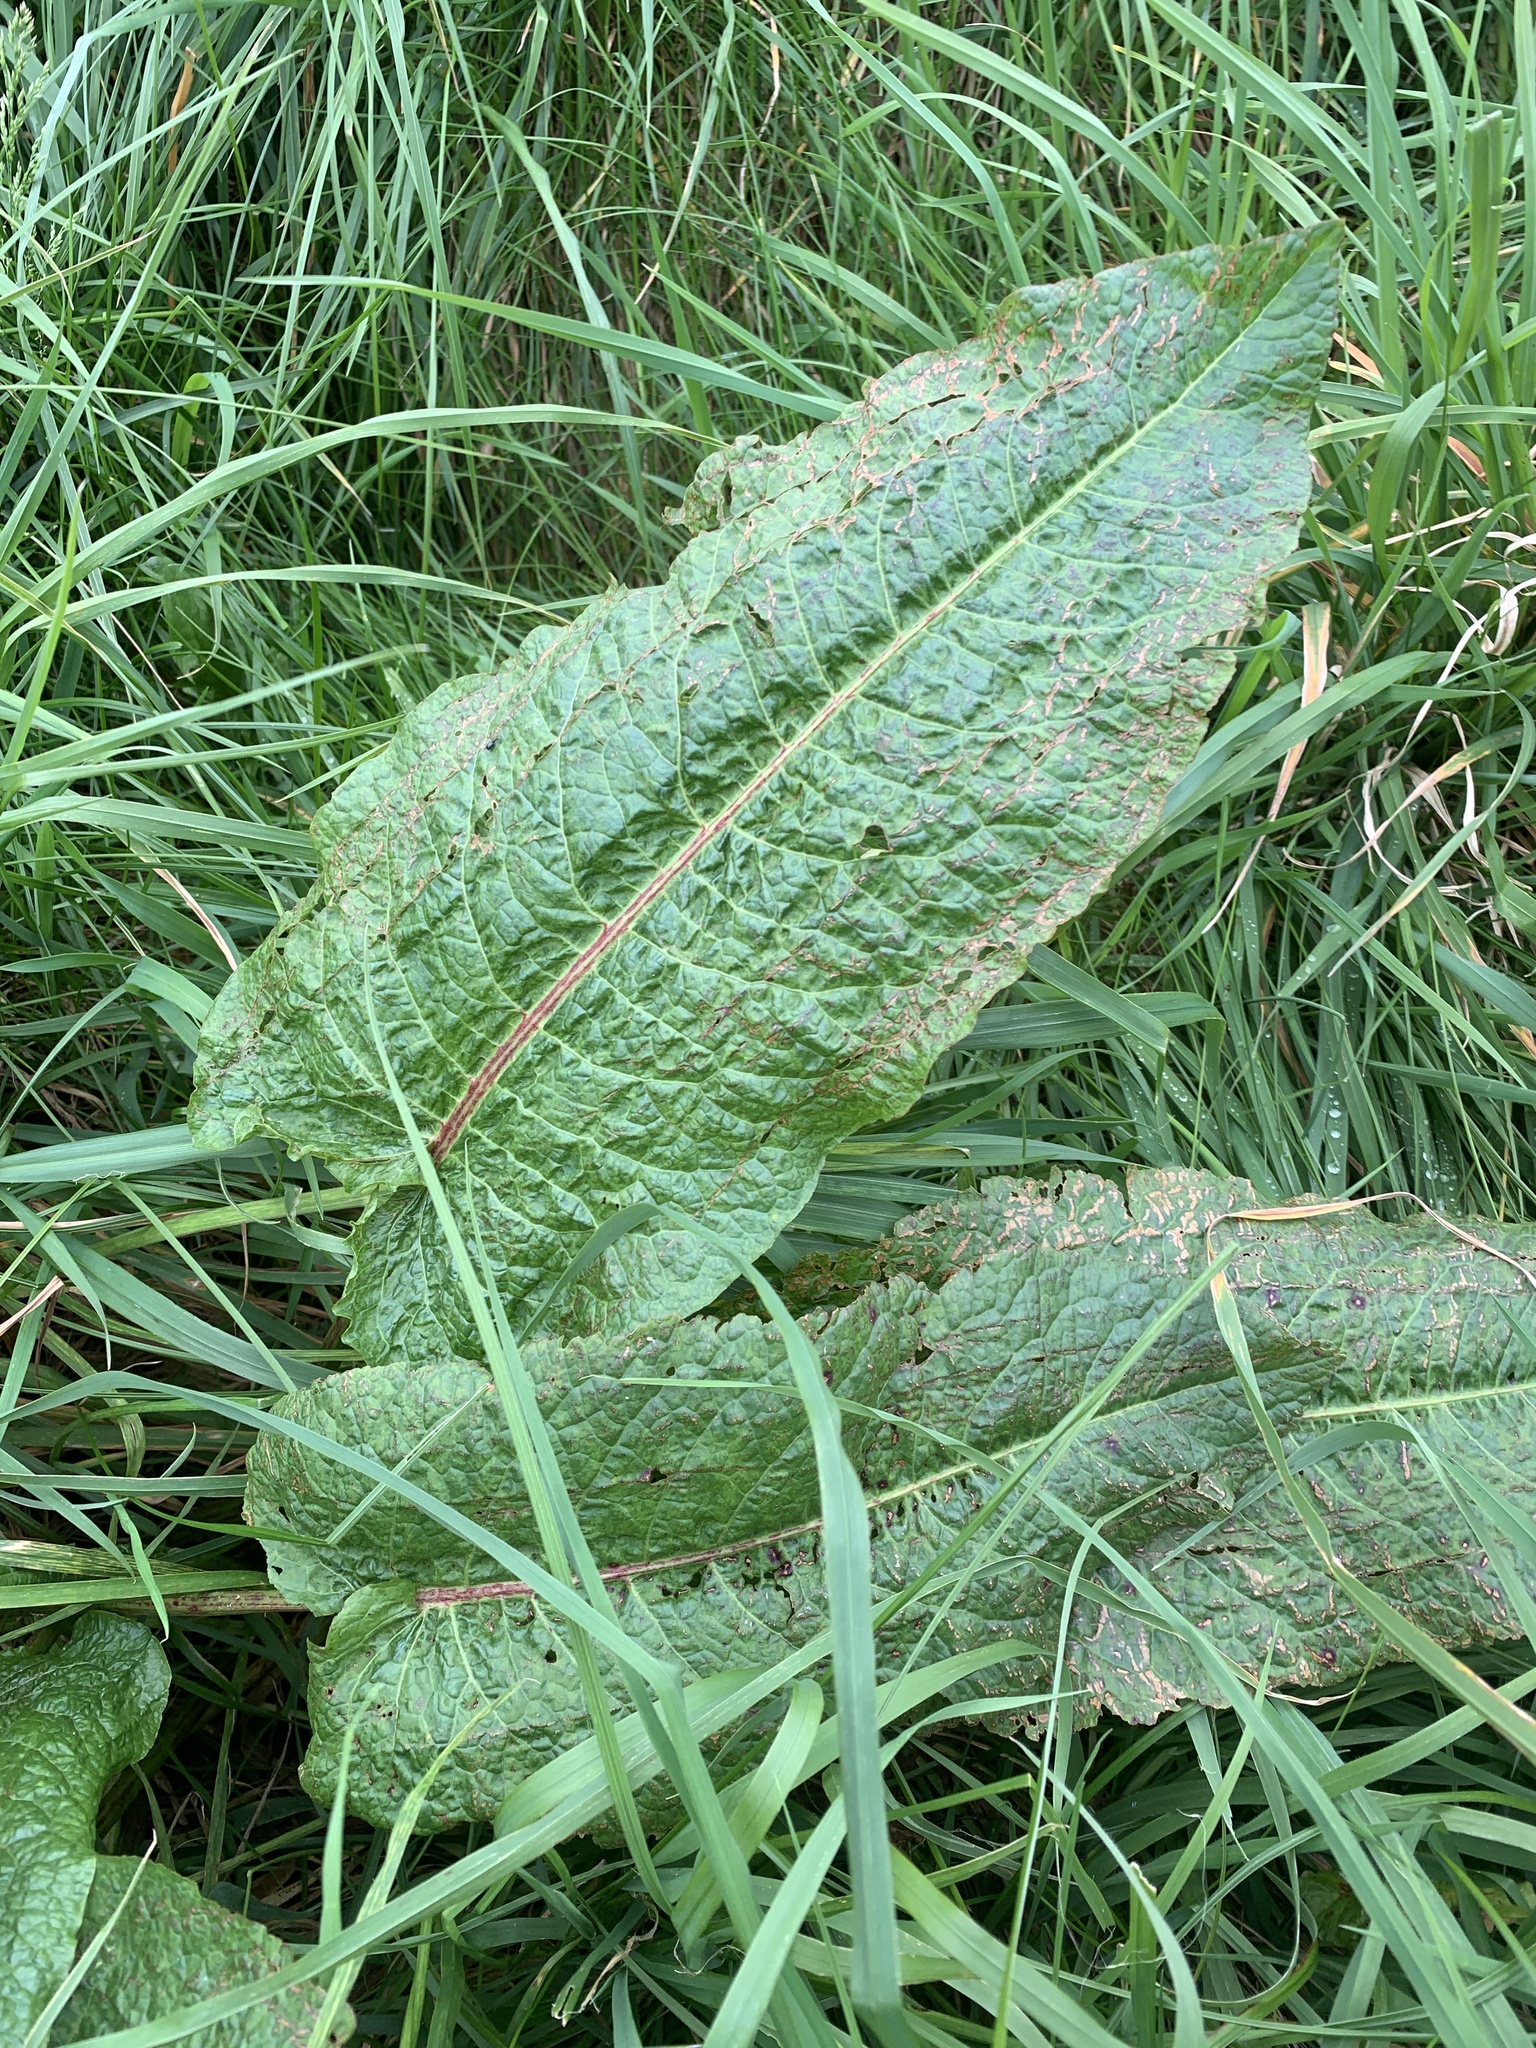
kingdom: Plantae
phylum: Tracheophyta
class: Magnoliopsida
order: Caryophyllales
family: Polygonaceae
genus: Rumex
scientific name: Rumex obtusifolius
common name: Bitter dock
